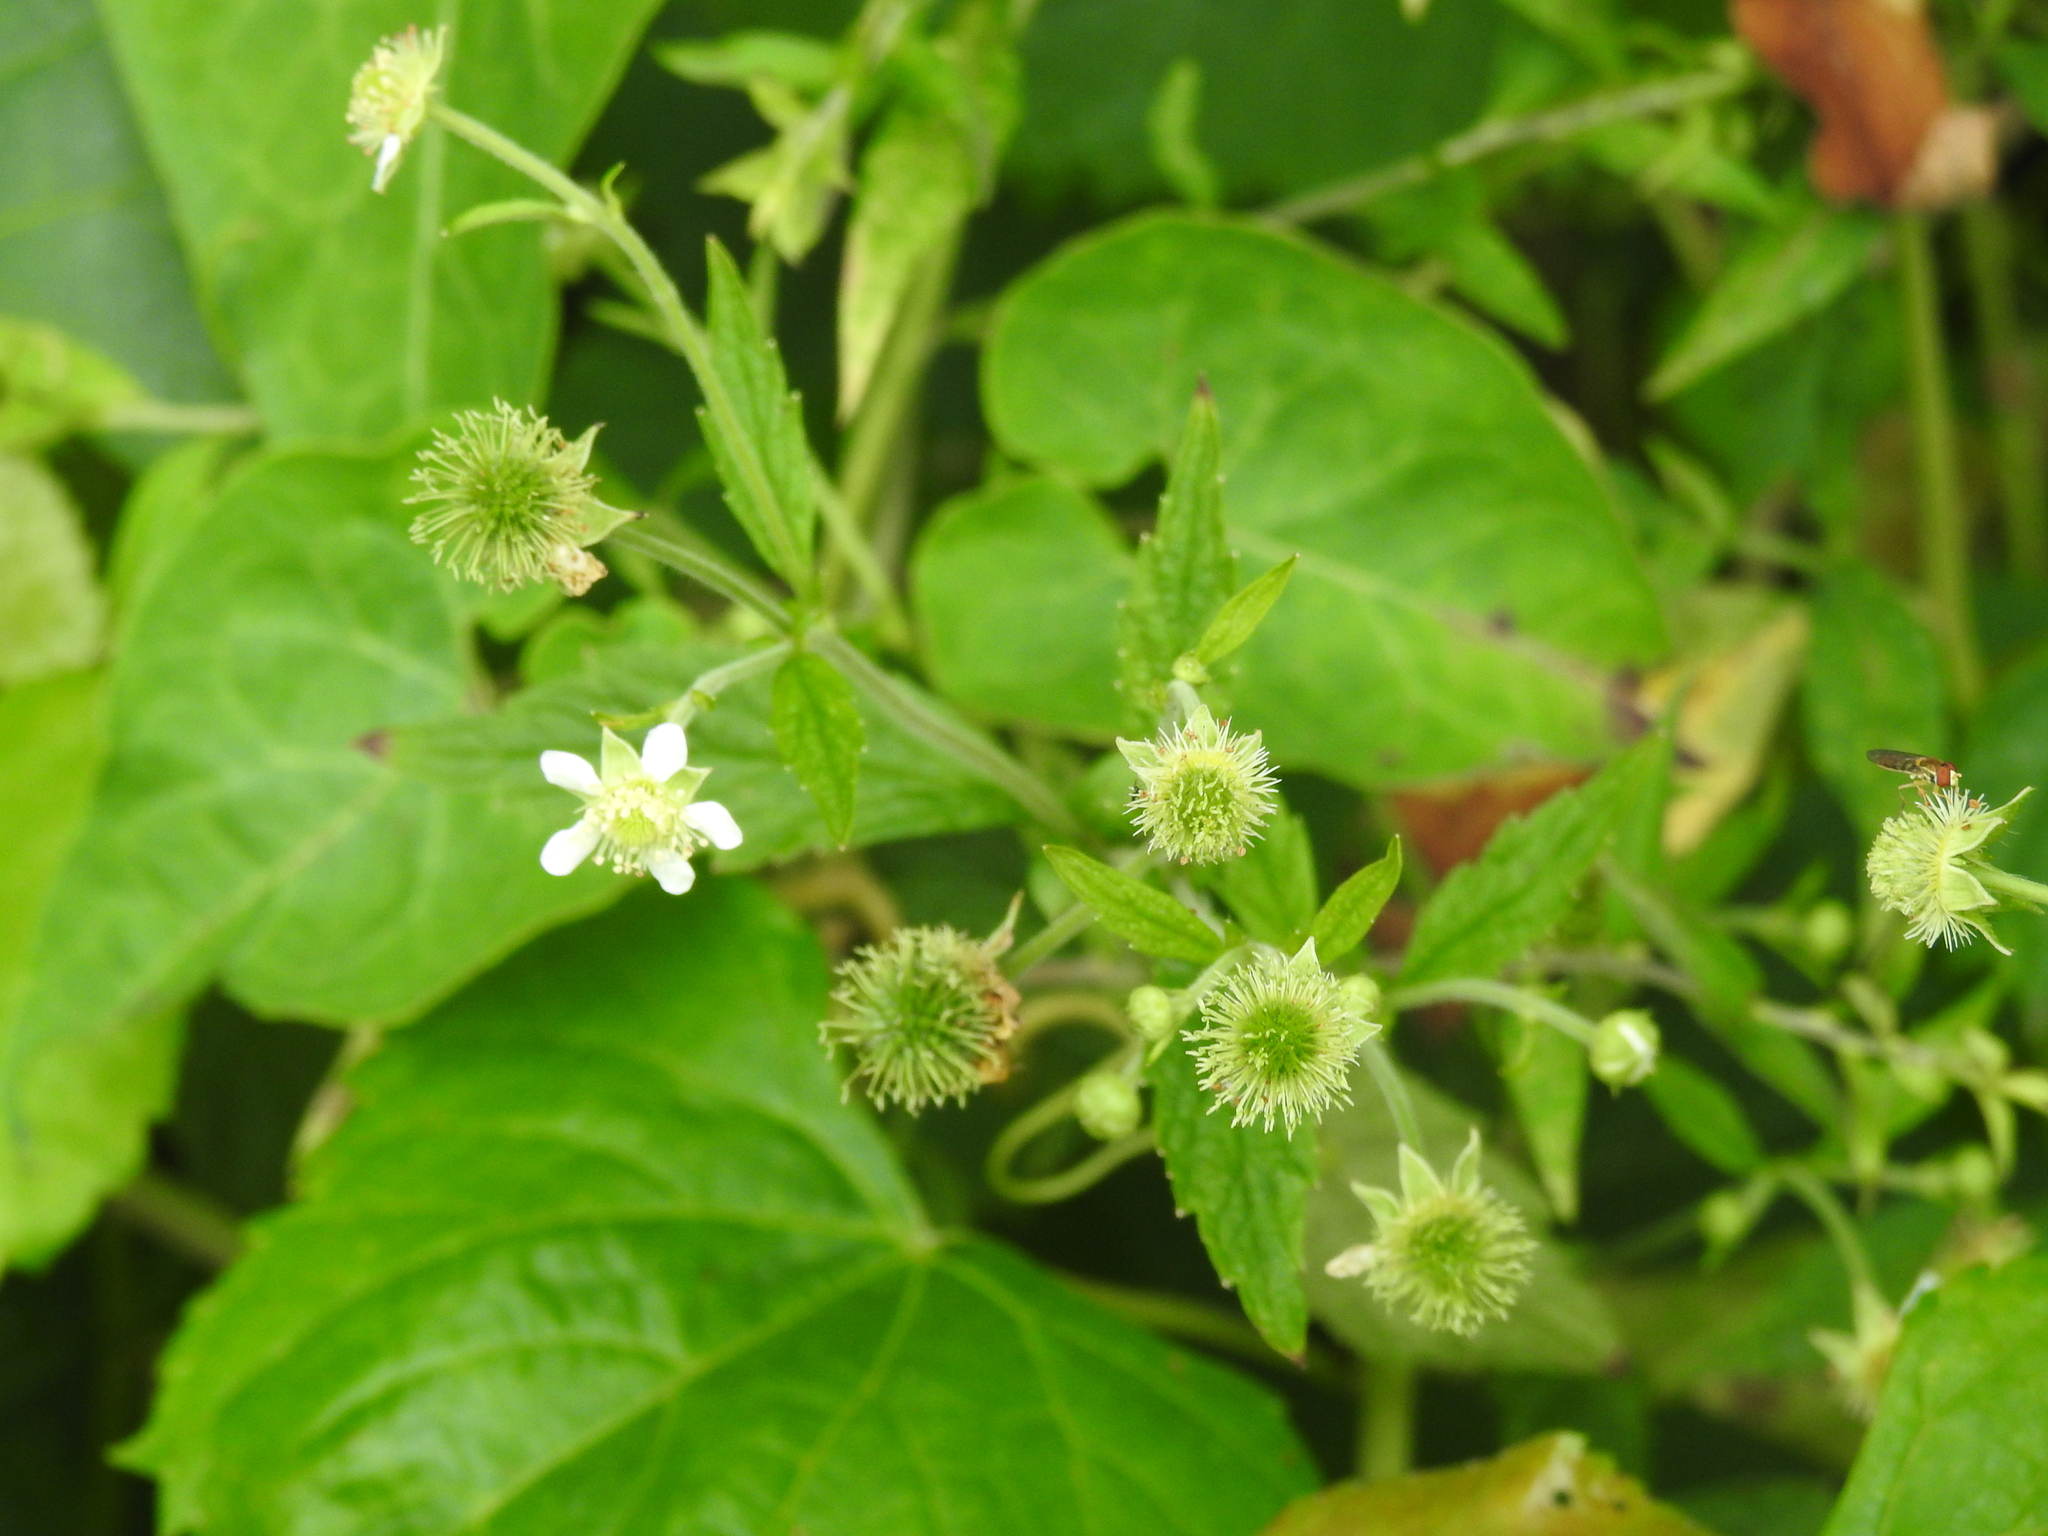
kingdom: Plantae
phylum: Tracheophyta
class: Magnoliopsida
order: Rosales
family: Rosaceae
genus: Geum
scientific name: Geum canadense
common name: White avens
